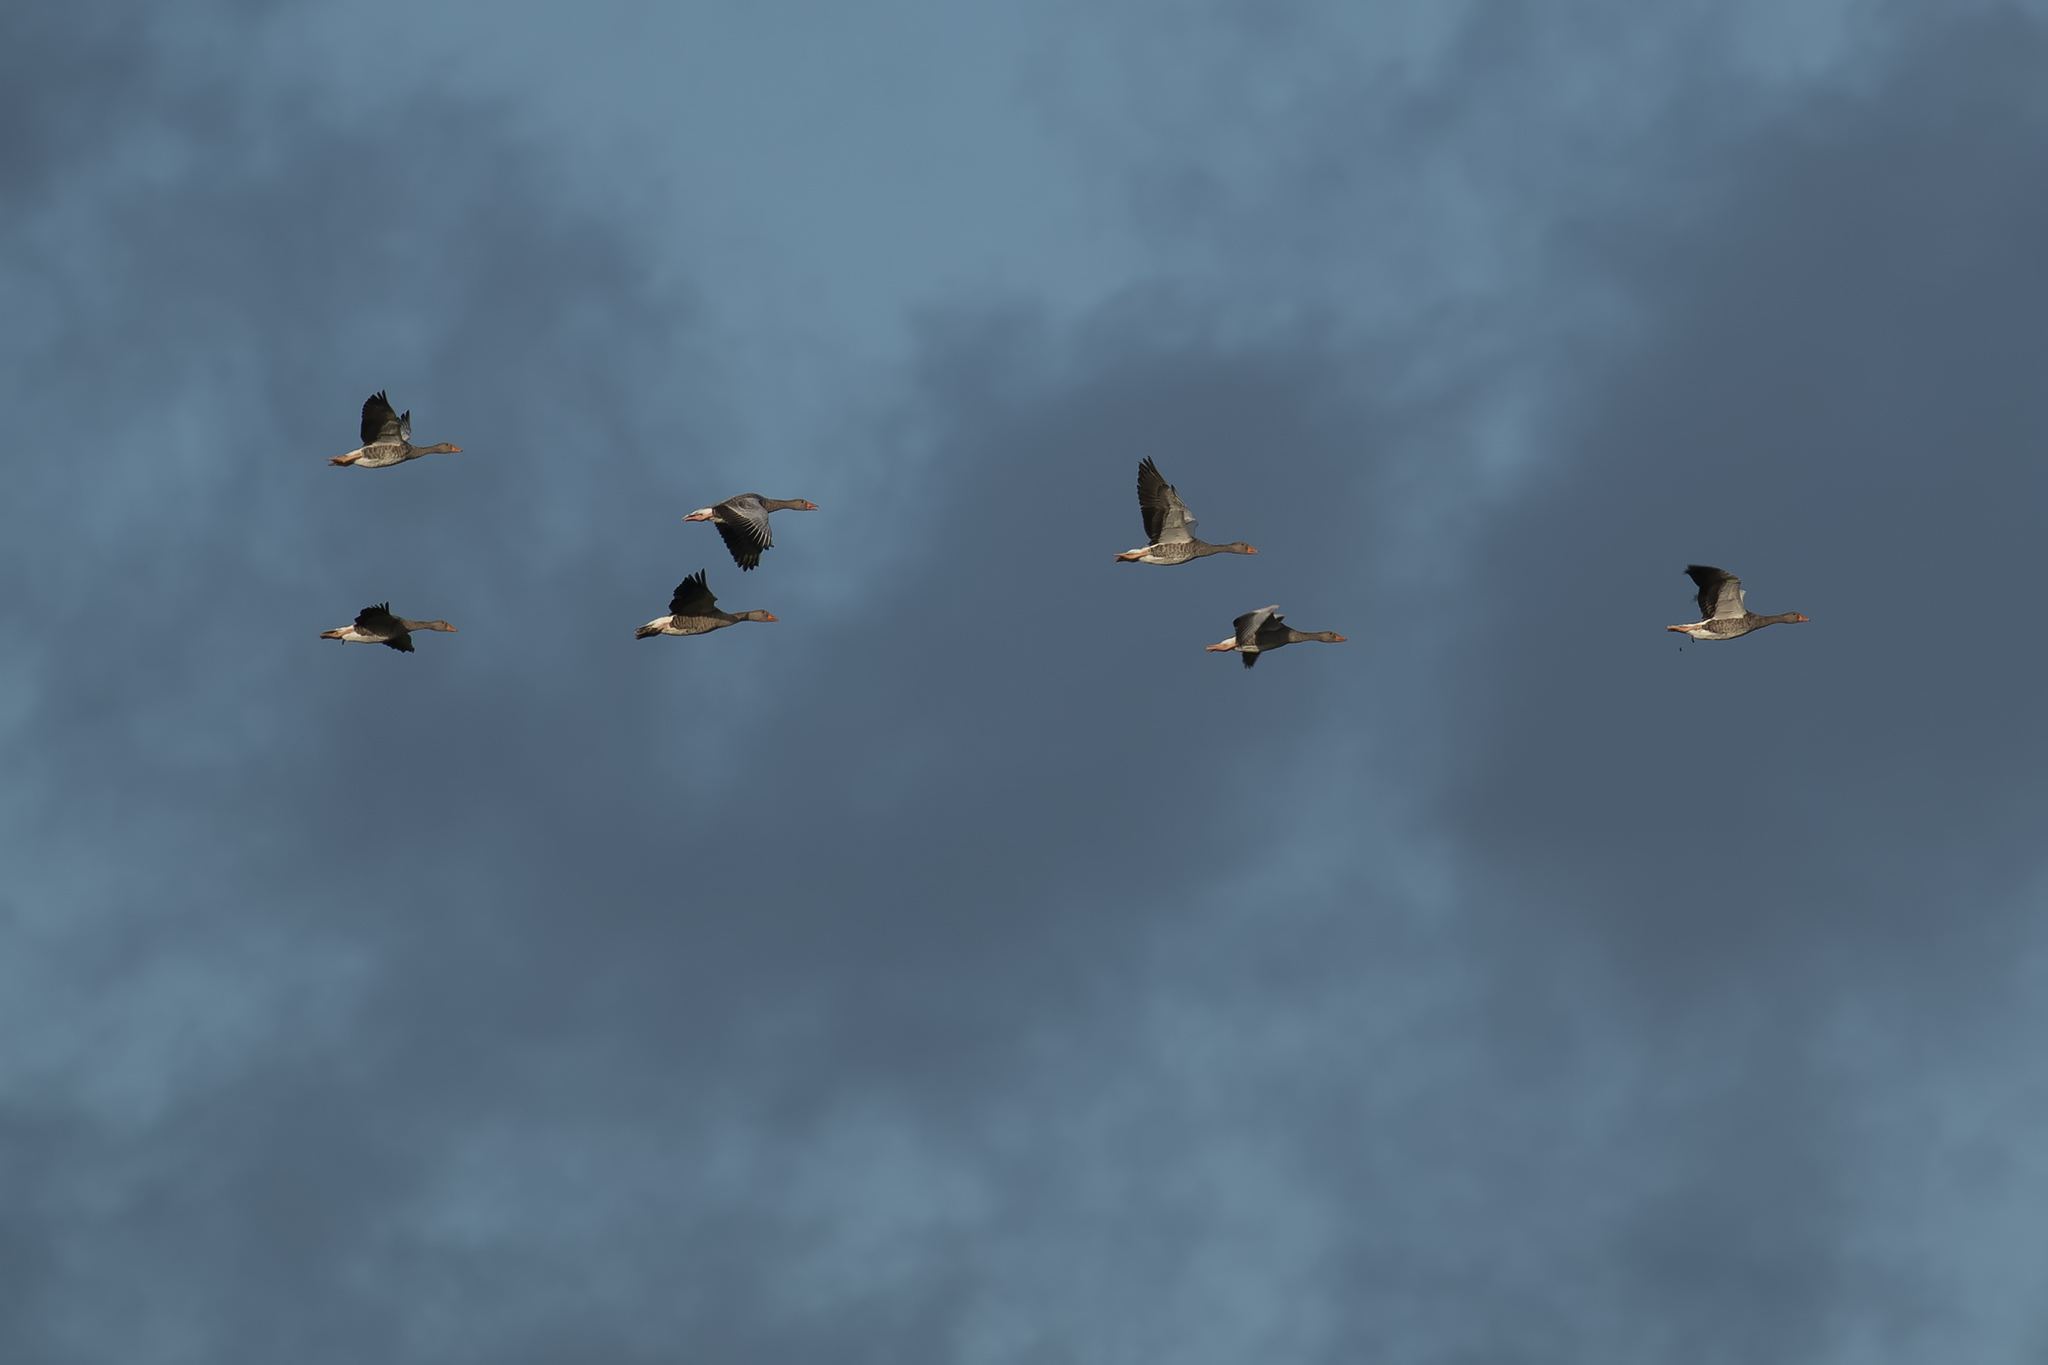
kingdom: Animalia
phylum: Chordata
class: Aves
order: Anseriformes
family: Anatidae
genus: Anser
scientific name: Anser anser
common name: Greylag goose
